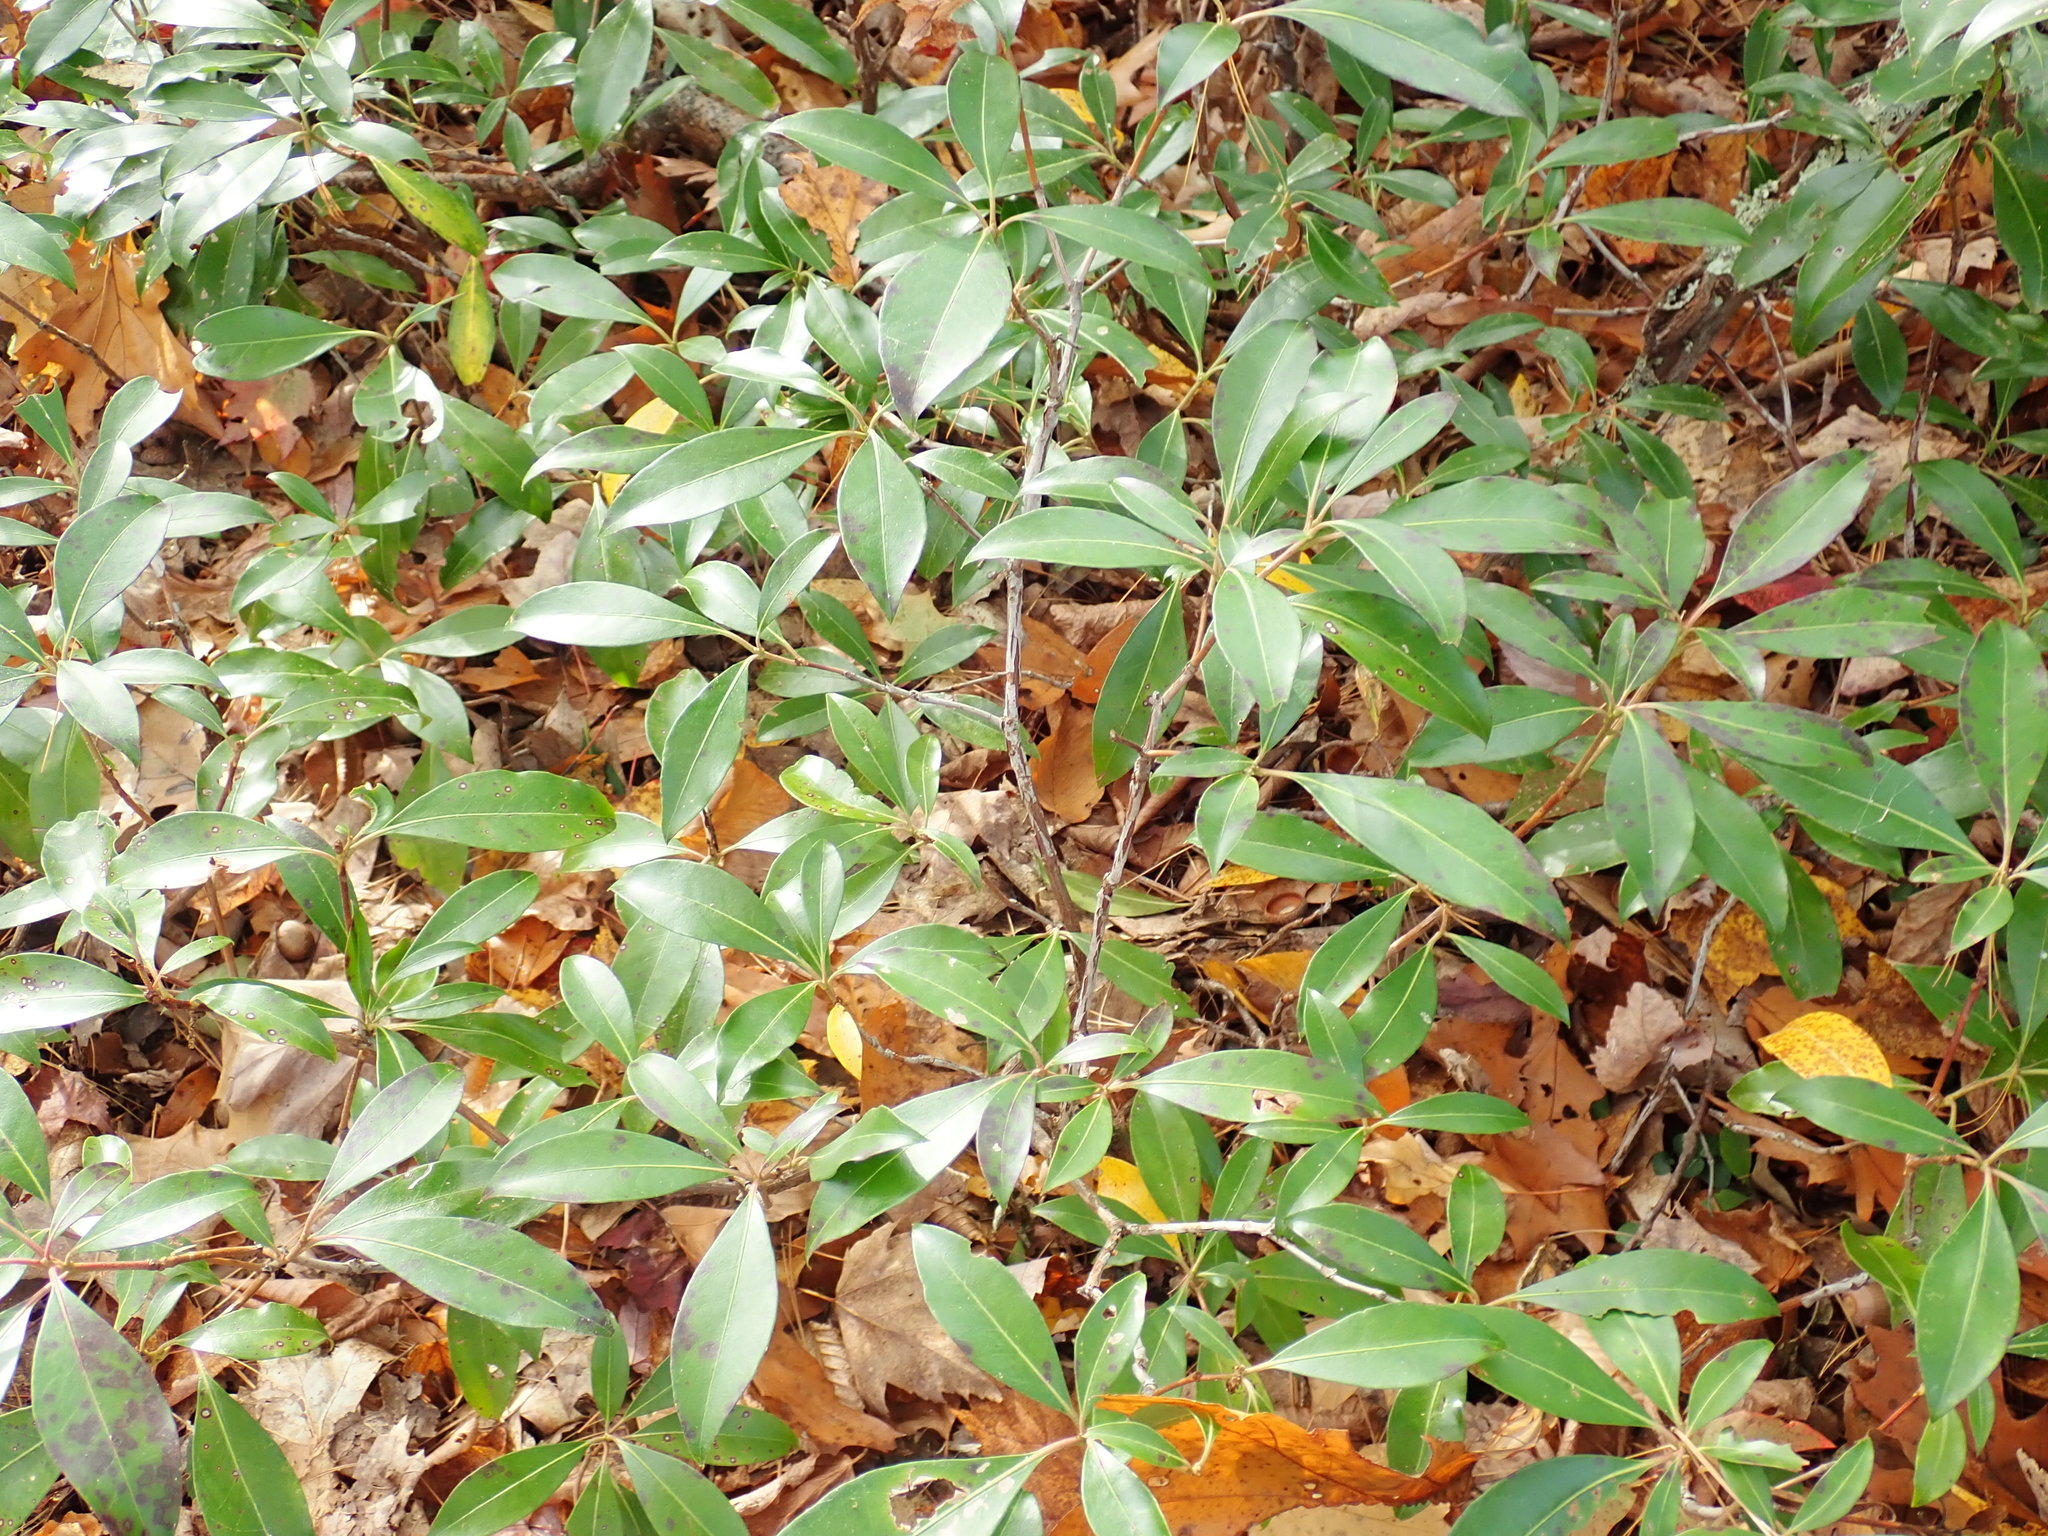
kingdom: Plantae
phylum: Tracheophyta
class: Magnoliopsida
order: Ericales
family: Ericaceae
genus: Kalmia
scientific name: Kalmia latifolia
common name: Mountain-laurel
